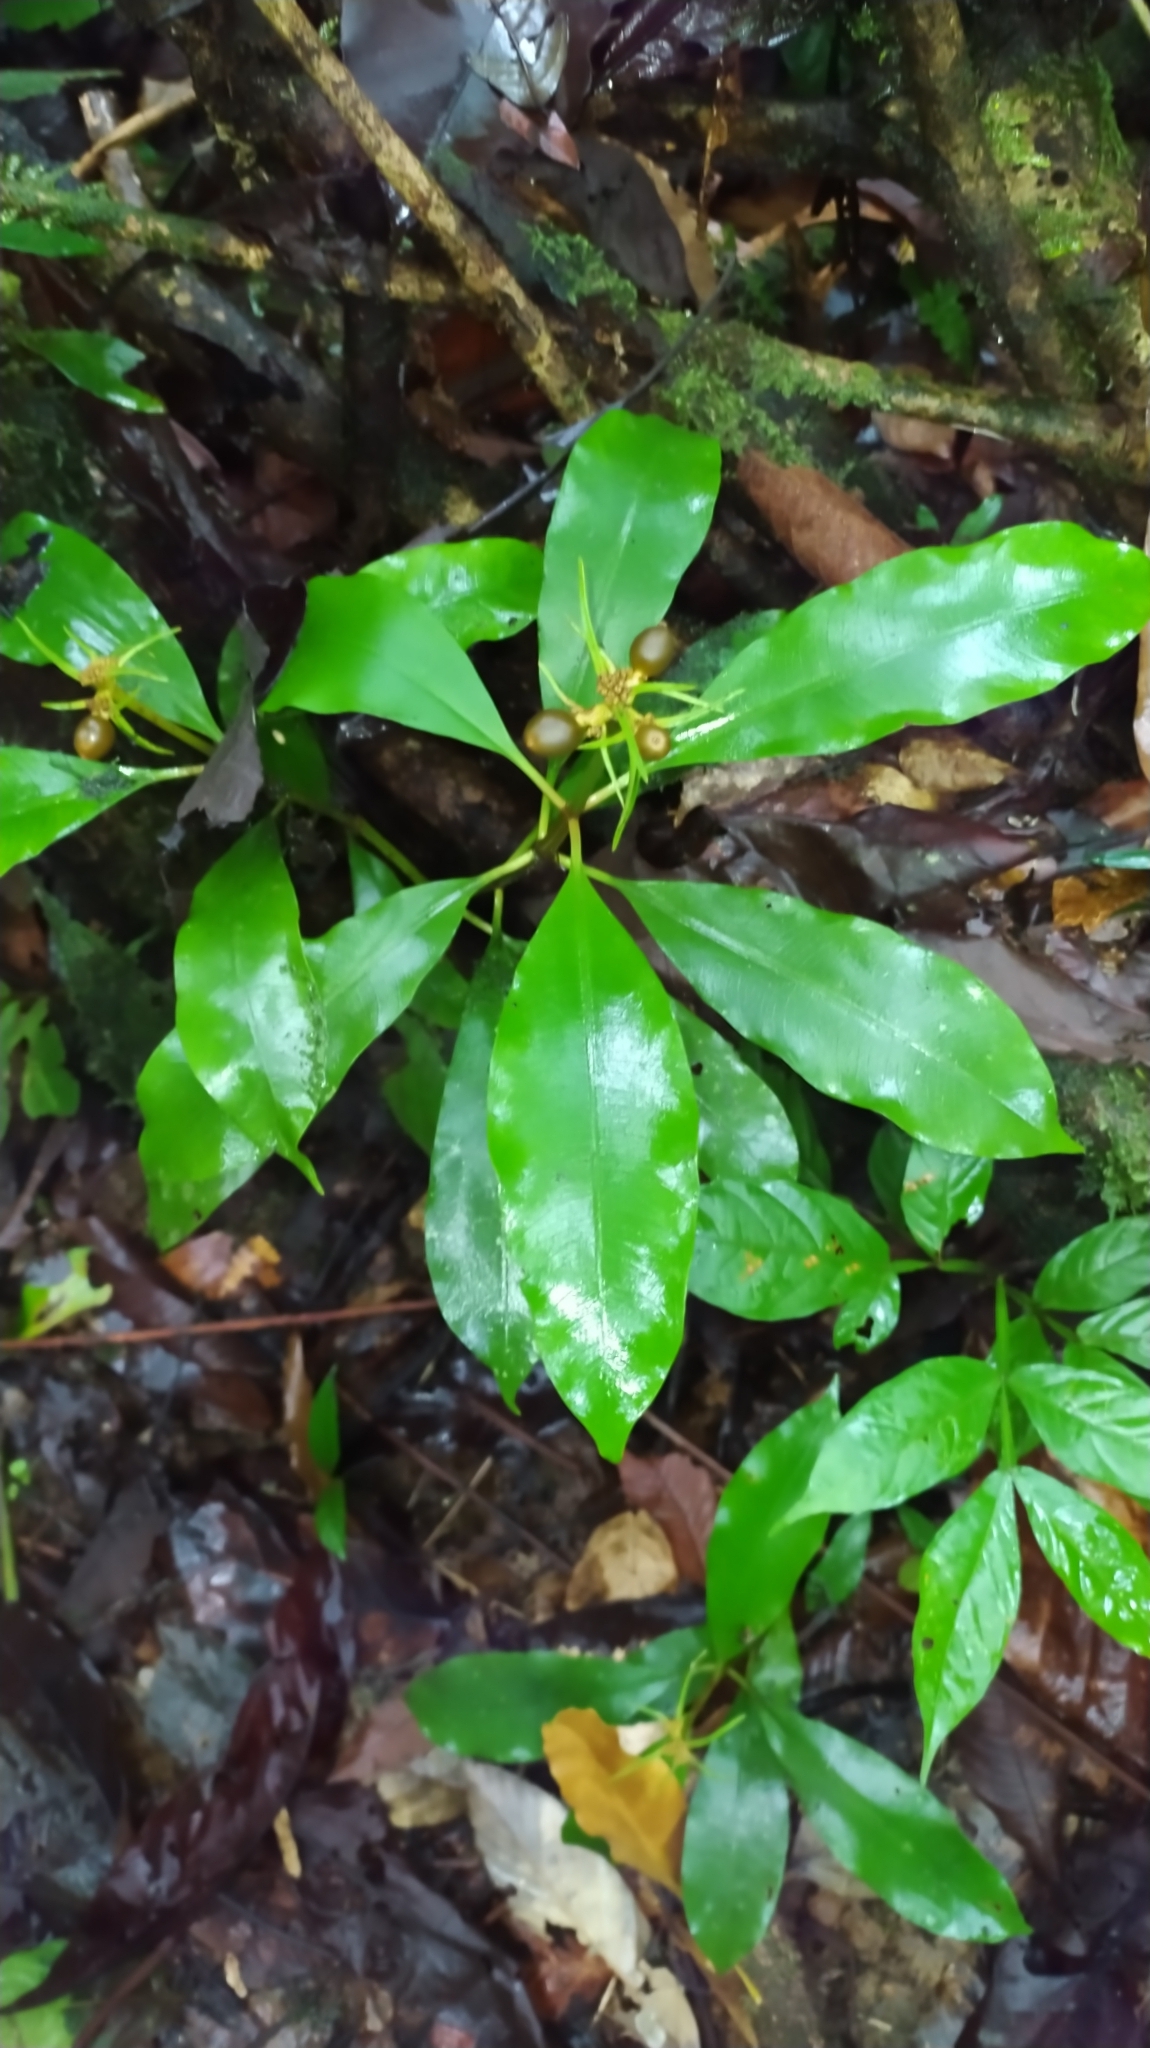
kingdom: Plantae
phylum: Tracheophyta
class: Magnoliopsida
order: Gentianales
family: Rubiaceae
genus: Carapichea
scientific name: Carapichea ligularis
